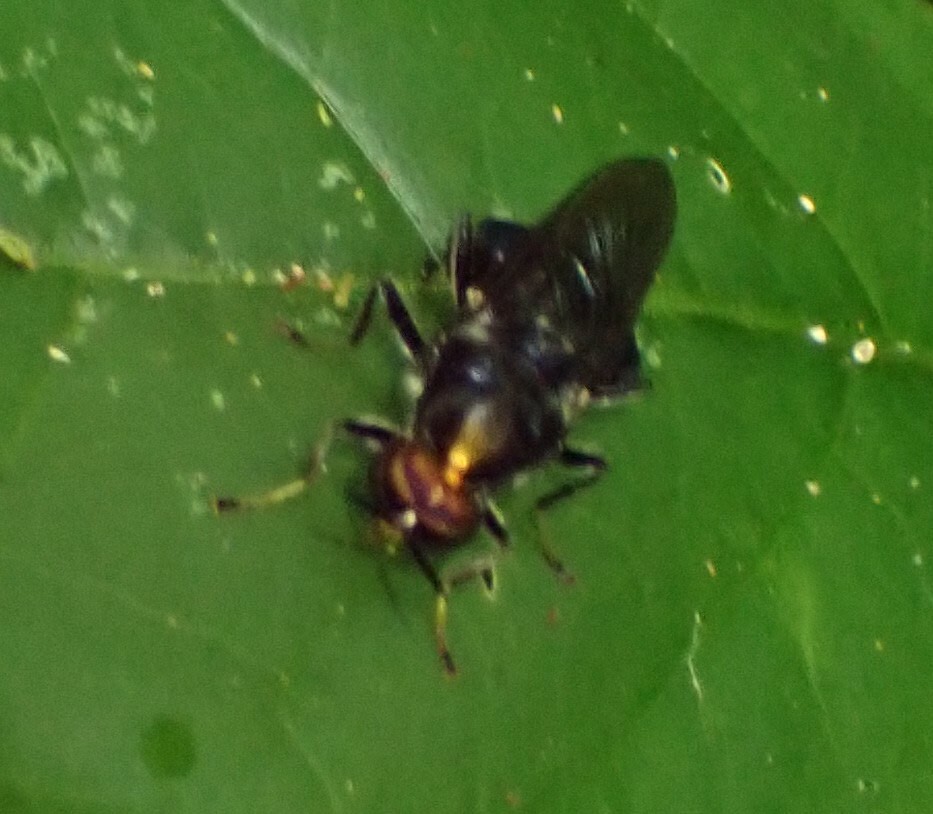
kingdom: Animalia
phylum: Arthropoda
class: Insecta
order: Diptera
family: Stratiomyidae
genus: Cyphomyia
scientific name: Cyphomyia aurifrons
